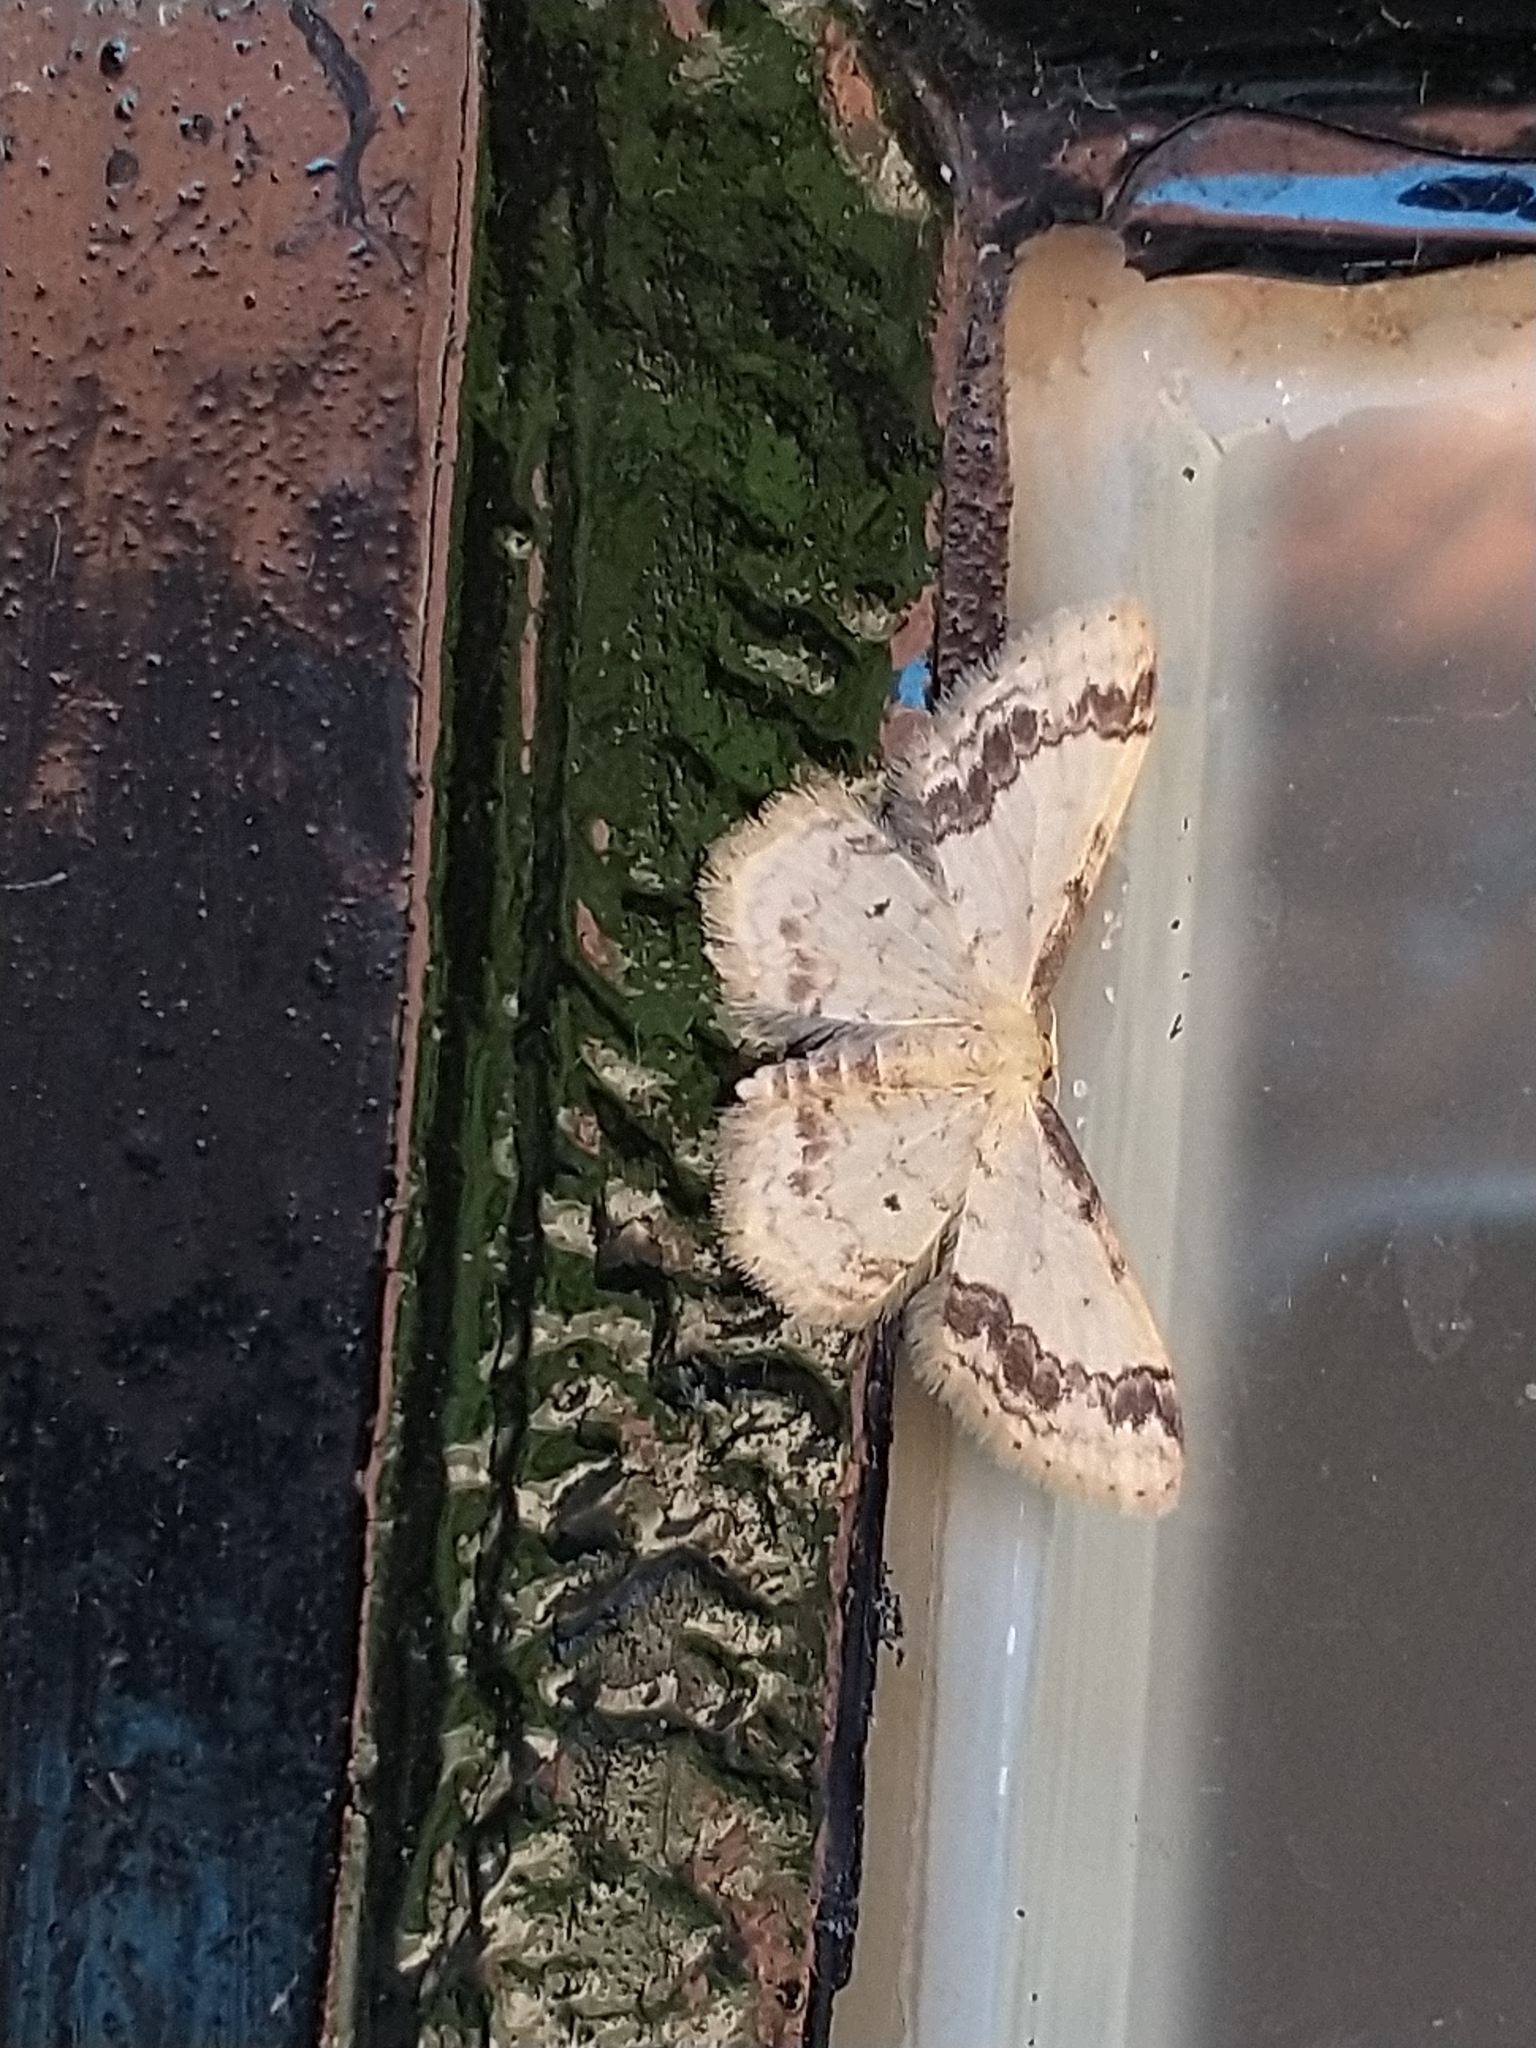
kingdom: Animalia
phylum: Arthropoda
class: Insecta
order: Lepidoptera
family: Geometridae
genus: Idaea
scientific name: Idaea trigeminata
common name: Treble brown spot
